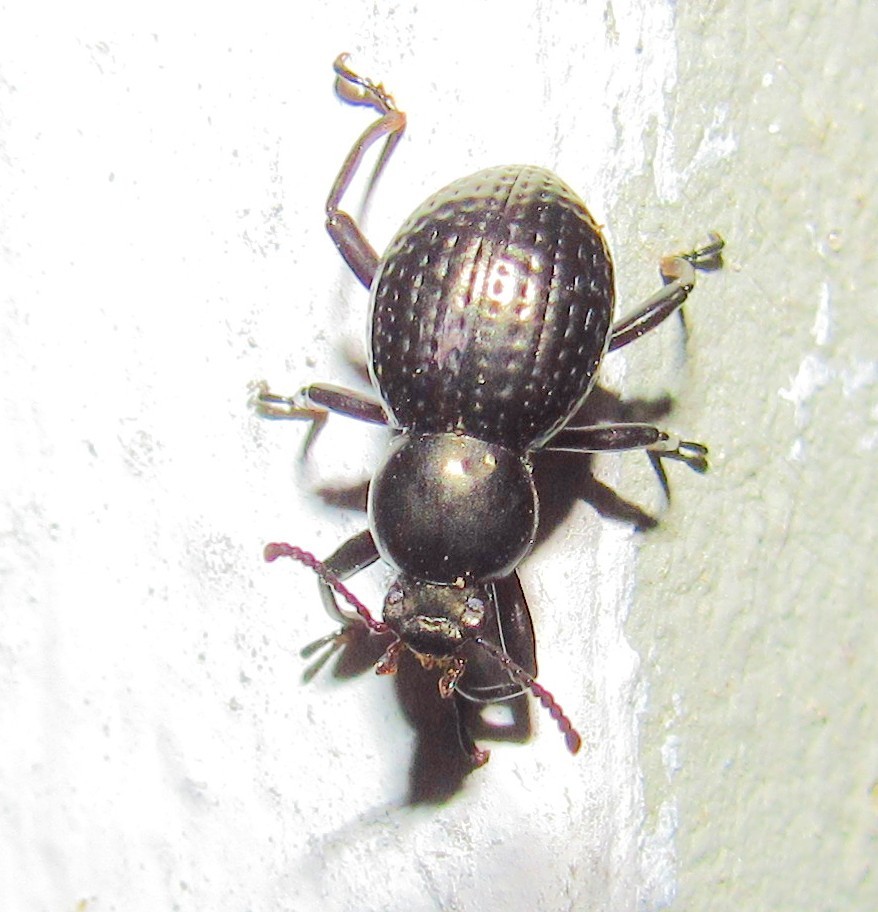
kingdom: Animalia
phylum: Arthropoda
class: Insecta
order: Coleoptera
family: Tenebrionidae
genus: Sphaerotus
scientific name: Sphaerotus
